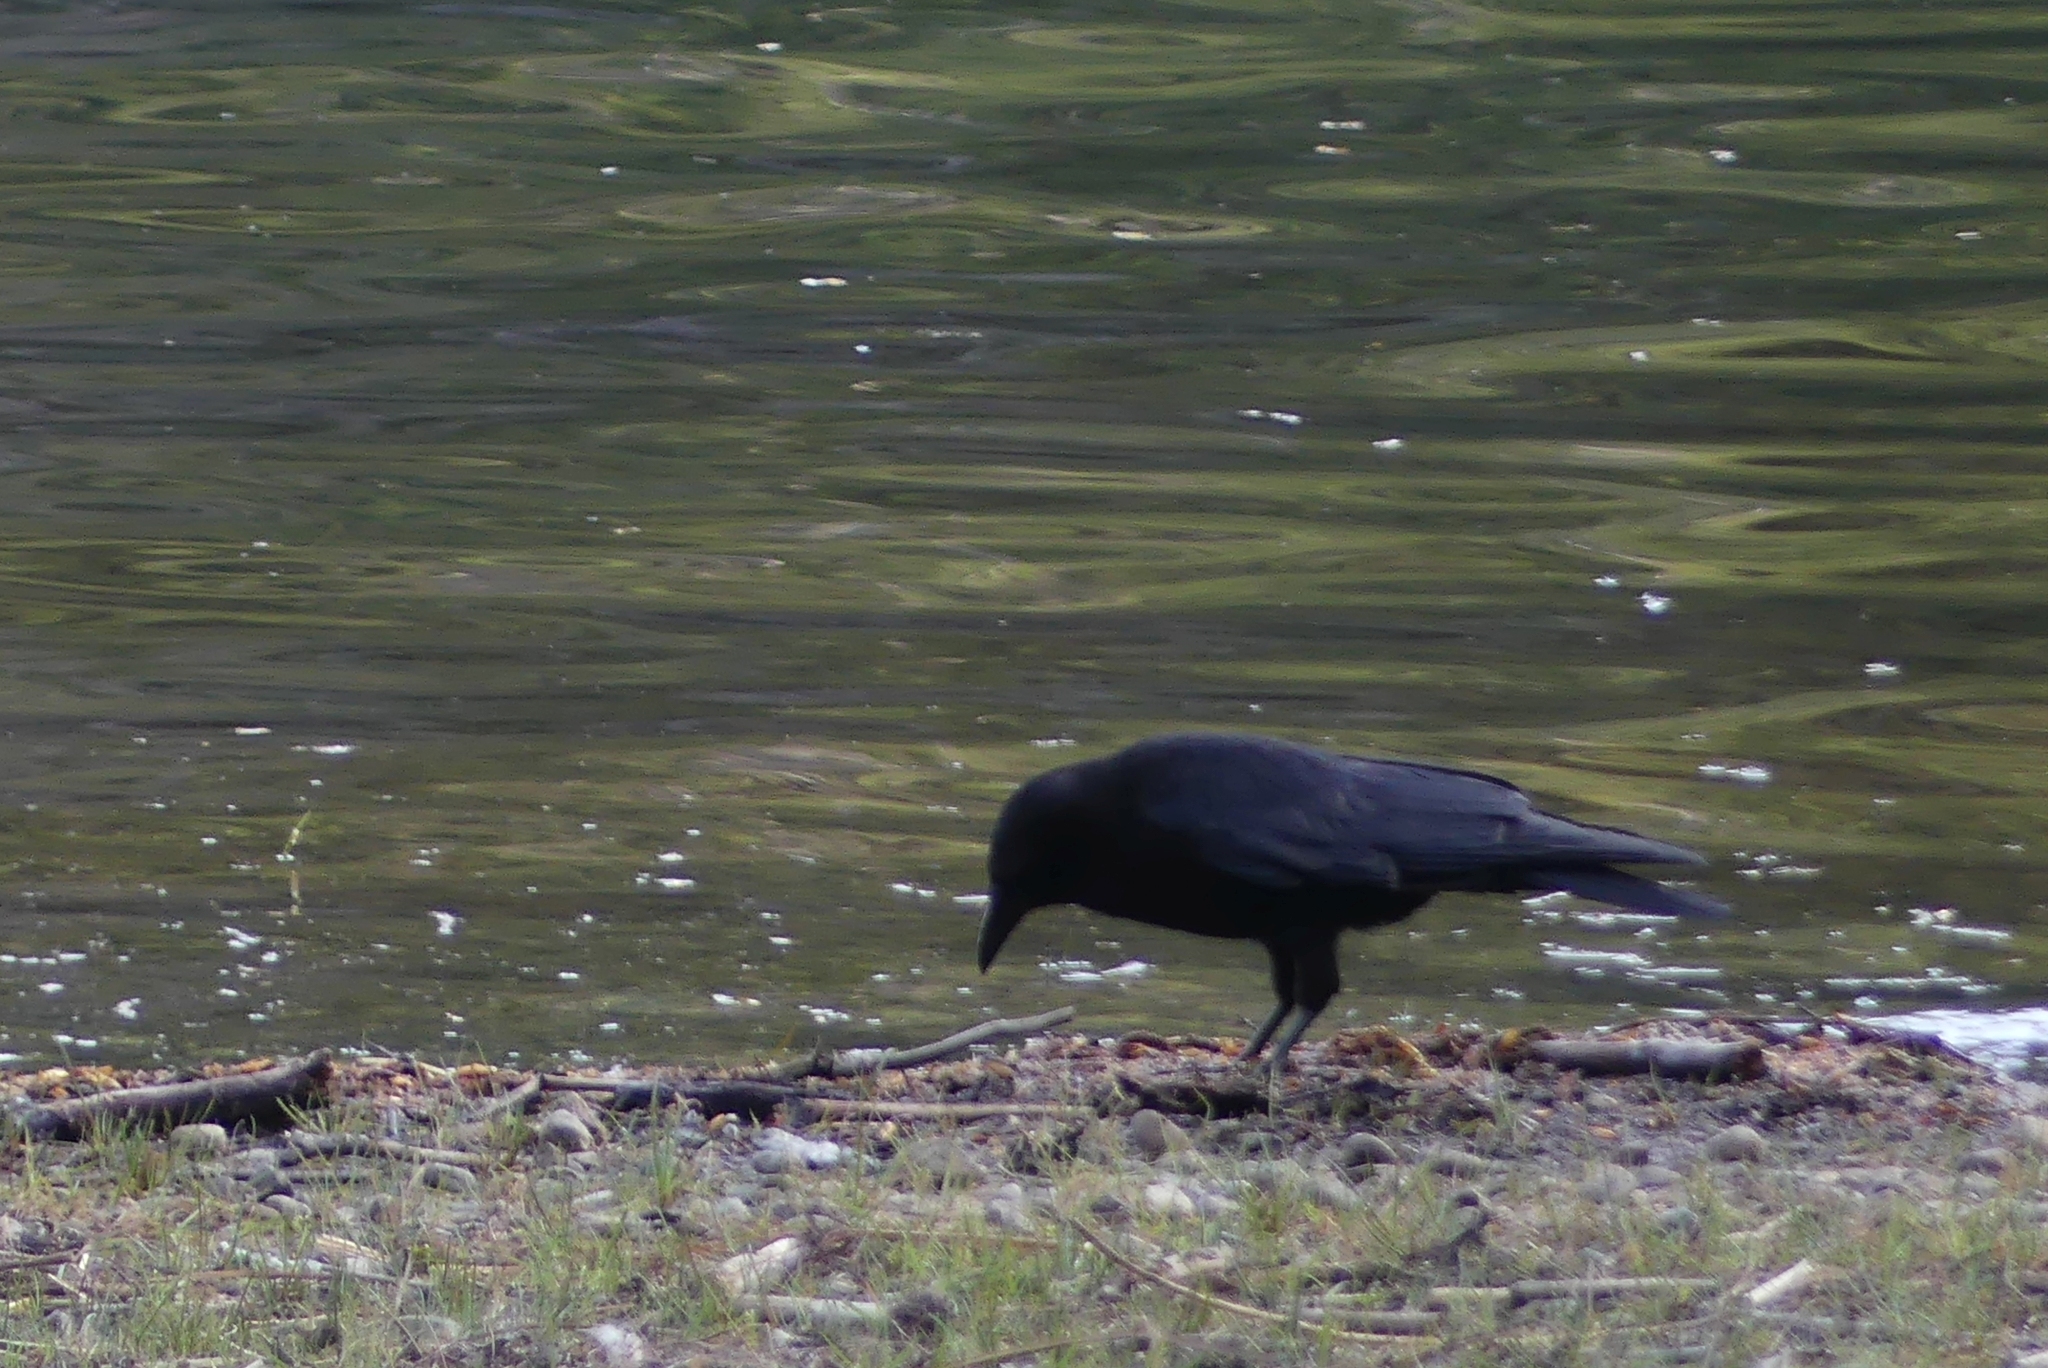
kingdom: Animalia
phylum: Chordata
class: Aves
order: Passeriformes
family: Corvidae
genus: Corvus
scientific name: Corvus brachyrhynchos
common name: American crow
